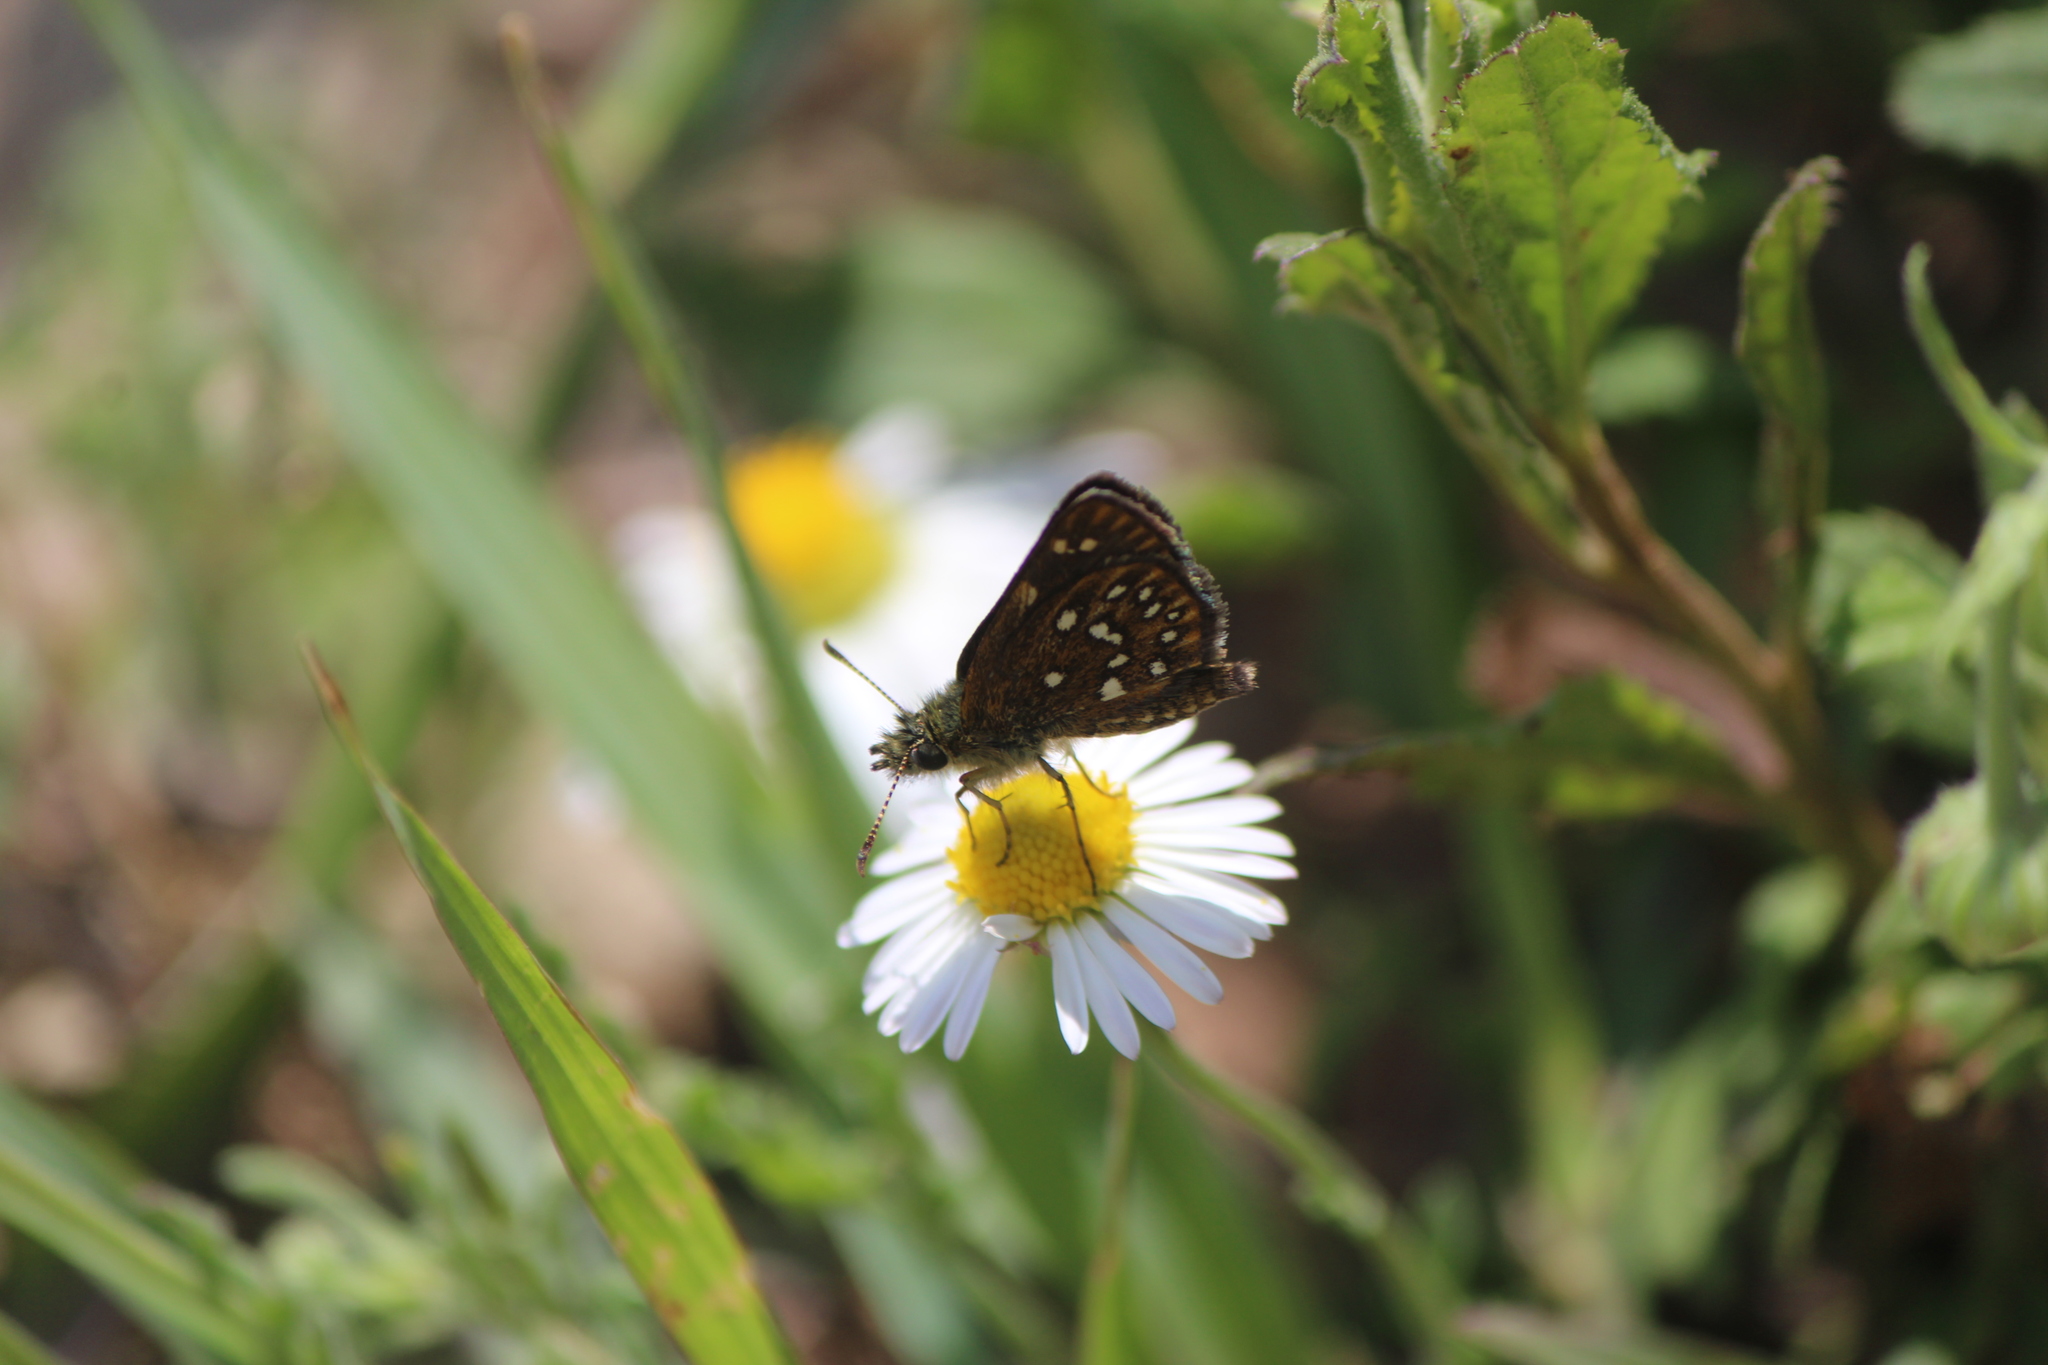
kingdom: Animalia
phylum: Arthropoda
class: Insecta
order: Lepidoptera
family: Hesperiidae
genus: Piruna
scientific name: Piruna aea
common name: Many-spotted skipperling
